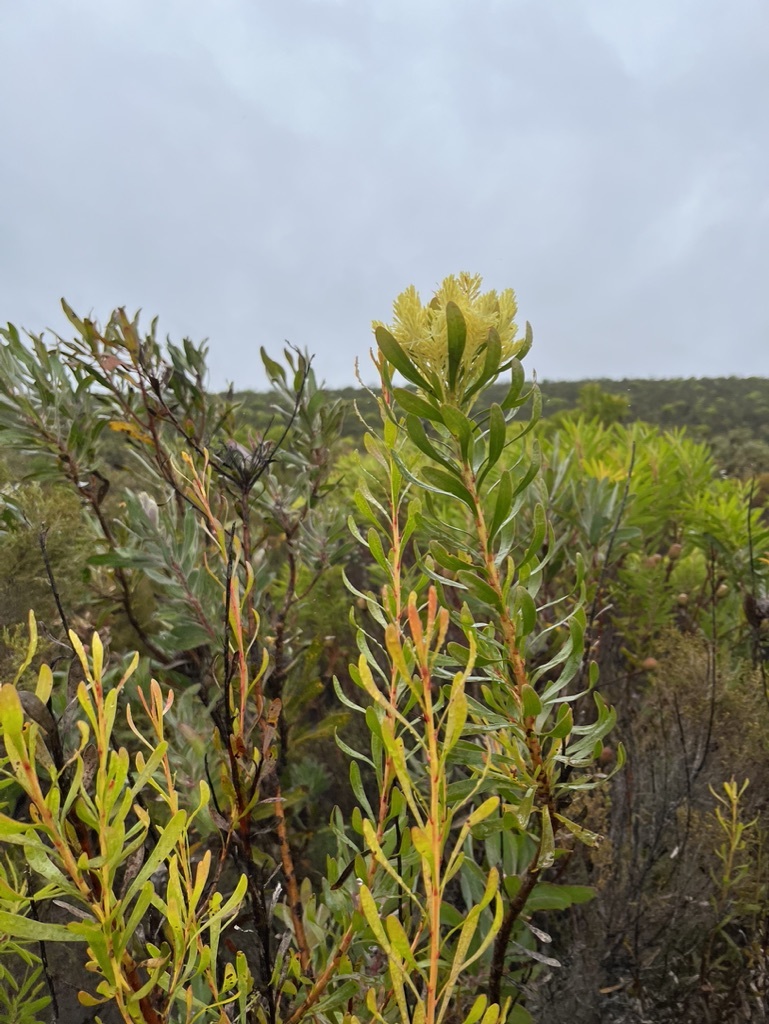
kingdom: Plantae
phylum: Tracheophyta
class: Magnoliopsida
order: Proteales
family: Proteaceae
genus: Aulax
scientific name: Aulax umbellata
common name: Broad-leaf featherbush
